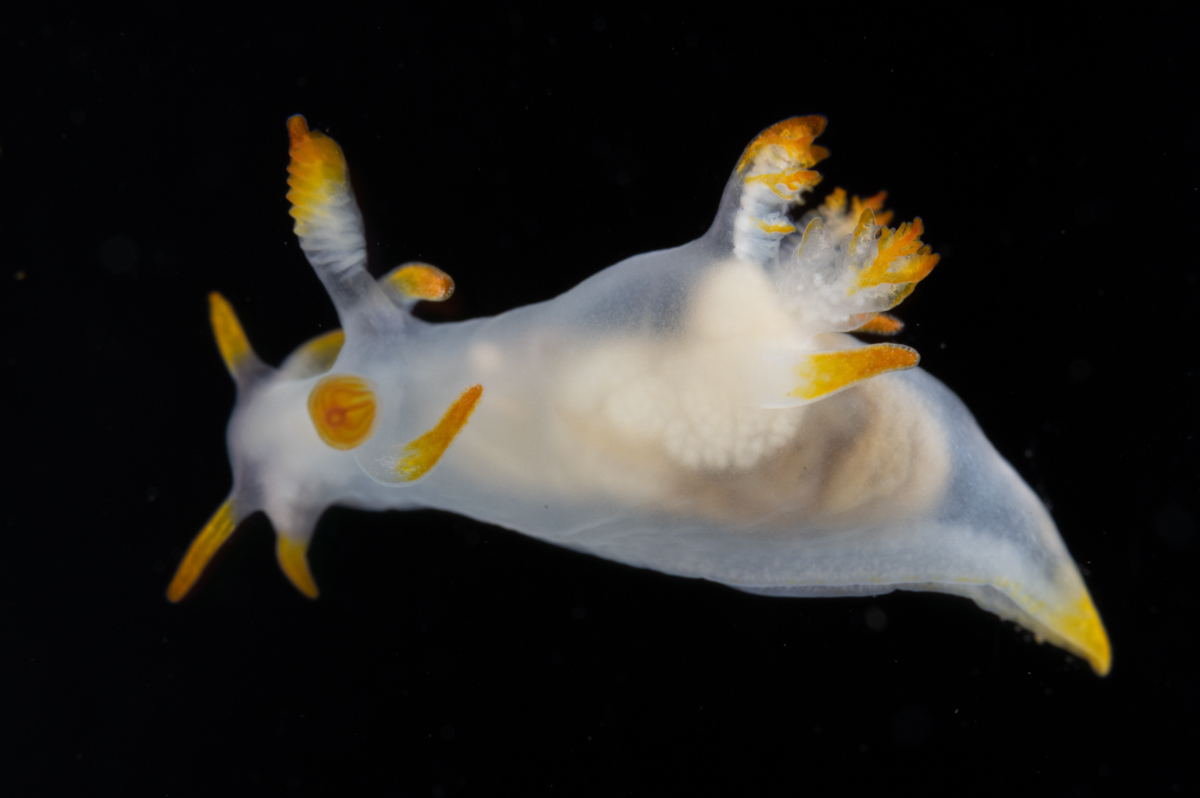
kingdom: Animalia
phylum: Mollusca
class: Gastropoda
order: Nudibranchia
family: Goniodorididae
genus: Trapania
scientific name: Trapania tartanella
